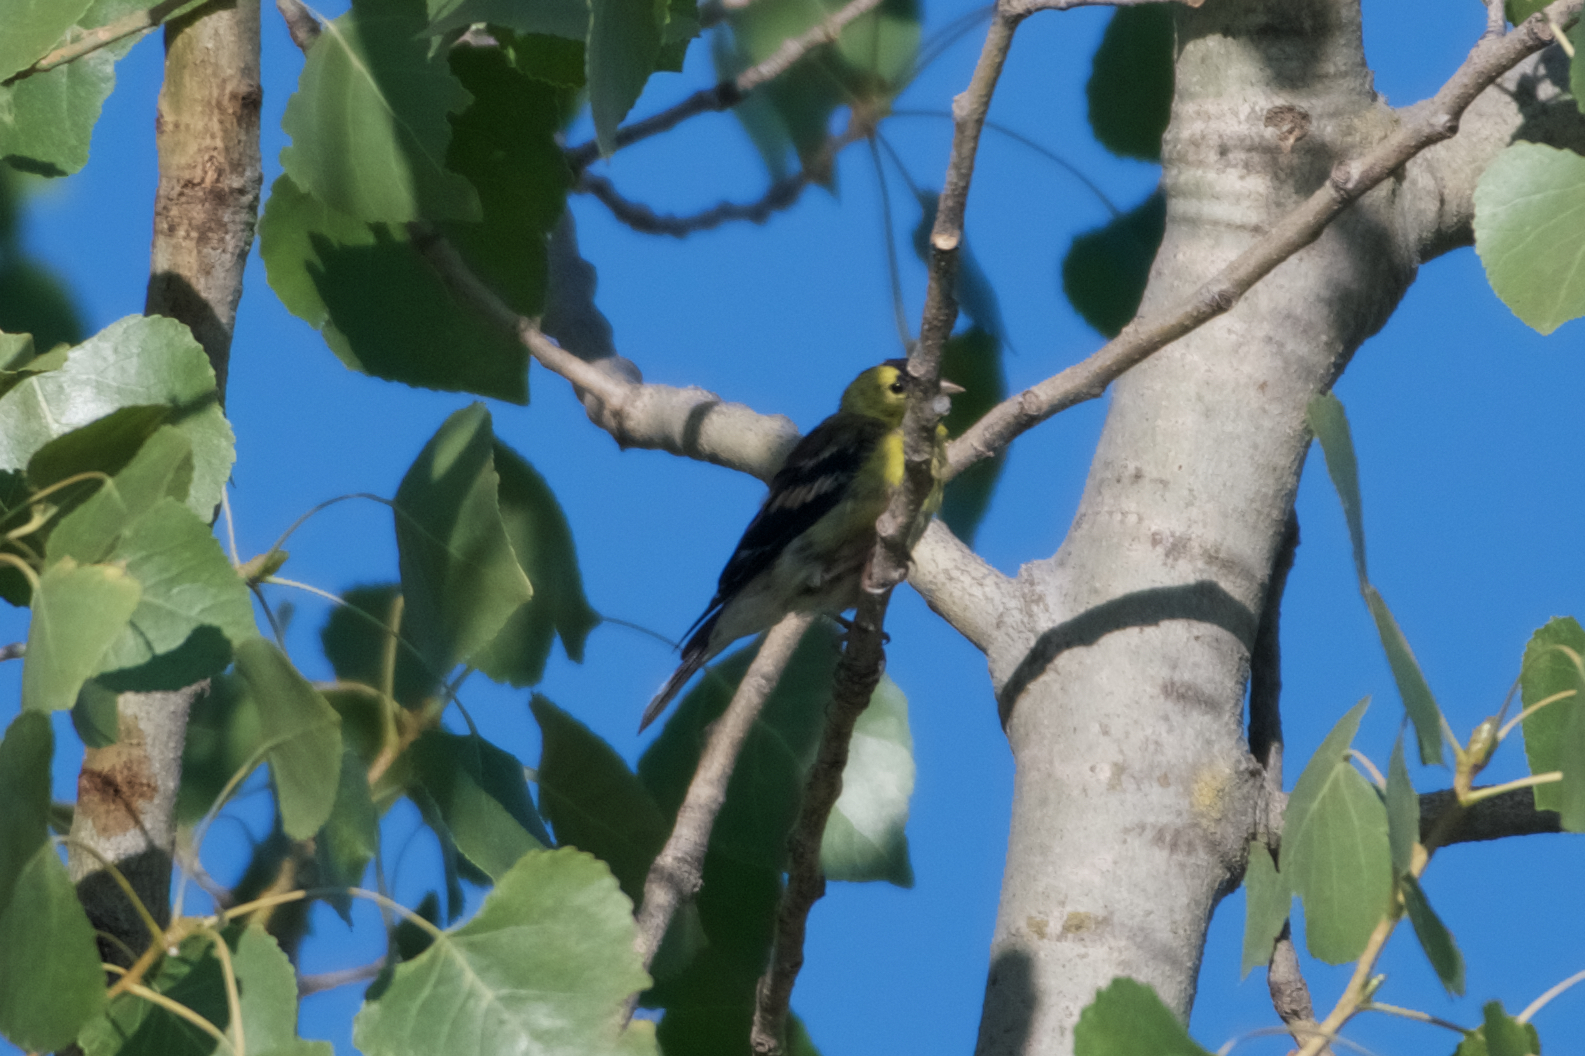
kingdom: Animalia
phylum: Chordata
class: Aves
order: Passeriformes
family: Fringillidae
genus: Spinus
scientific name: Spinus tristis
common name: American goldfinch
